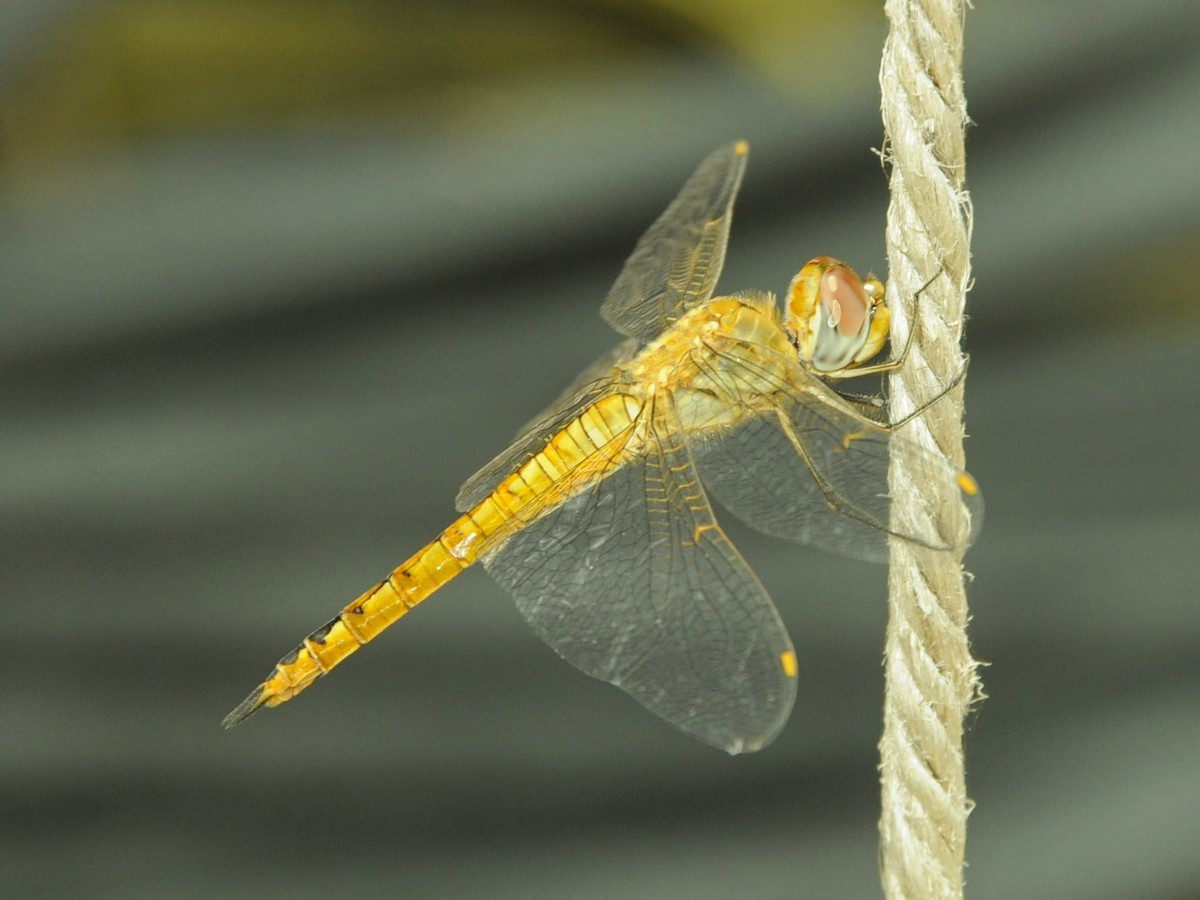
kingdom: Animalia
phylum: Arthropoda
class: Insecta
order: Odonata
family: Libellulidae
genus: Pantala
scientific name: Pantala flavescens
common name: Wandering glider
